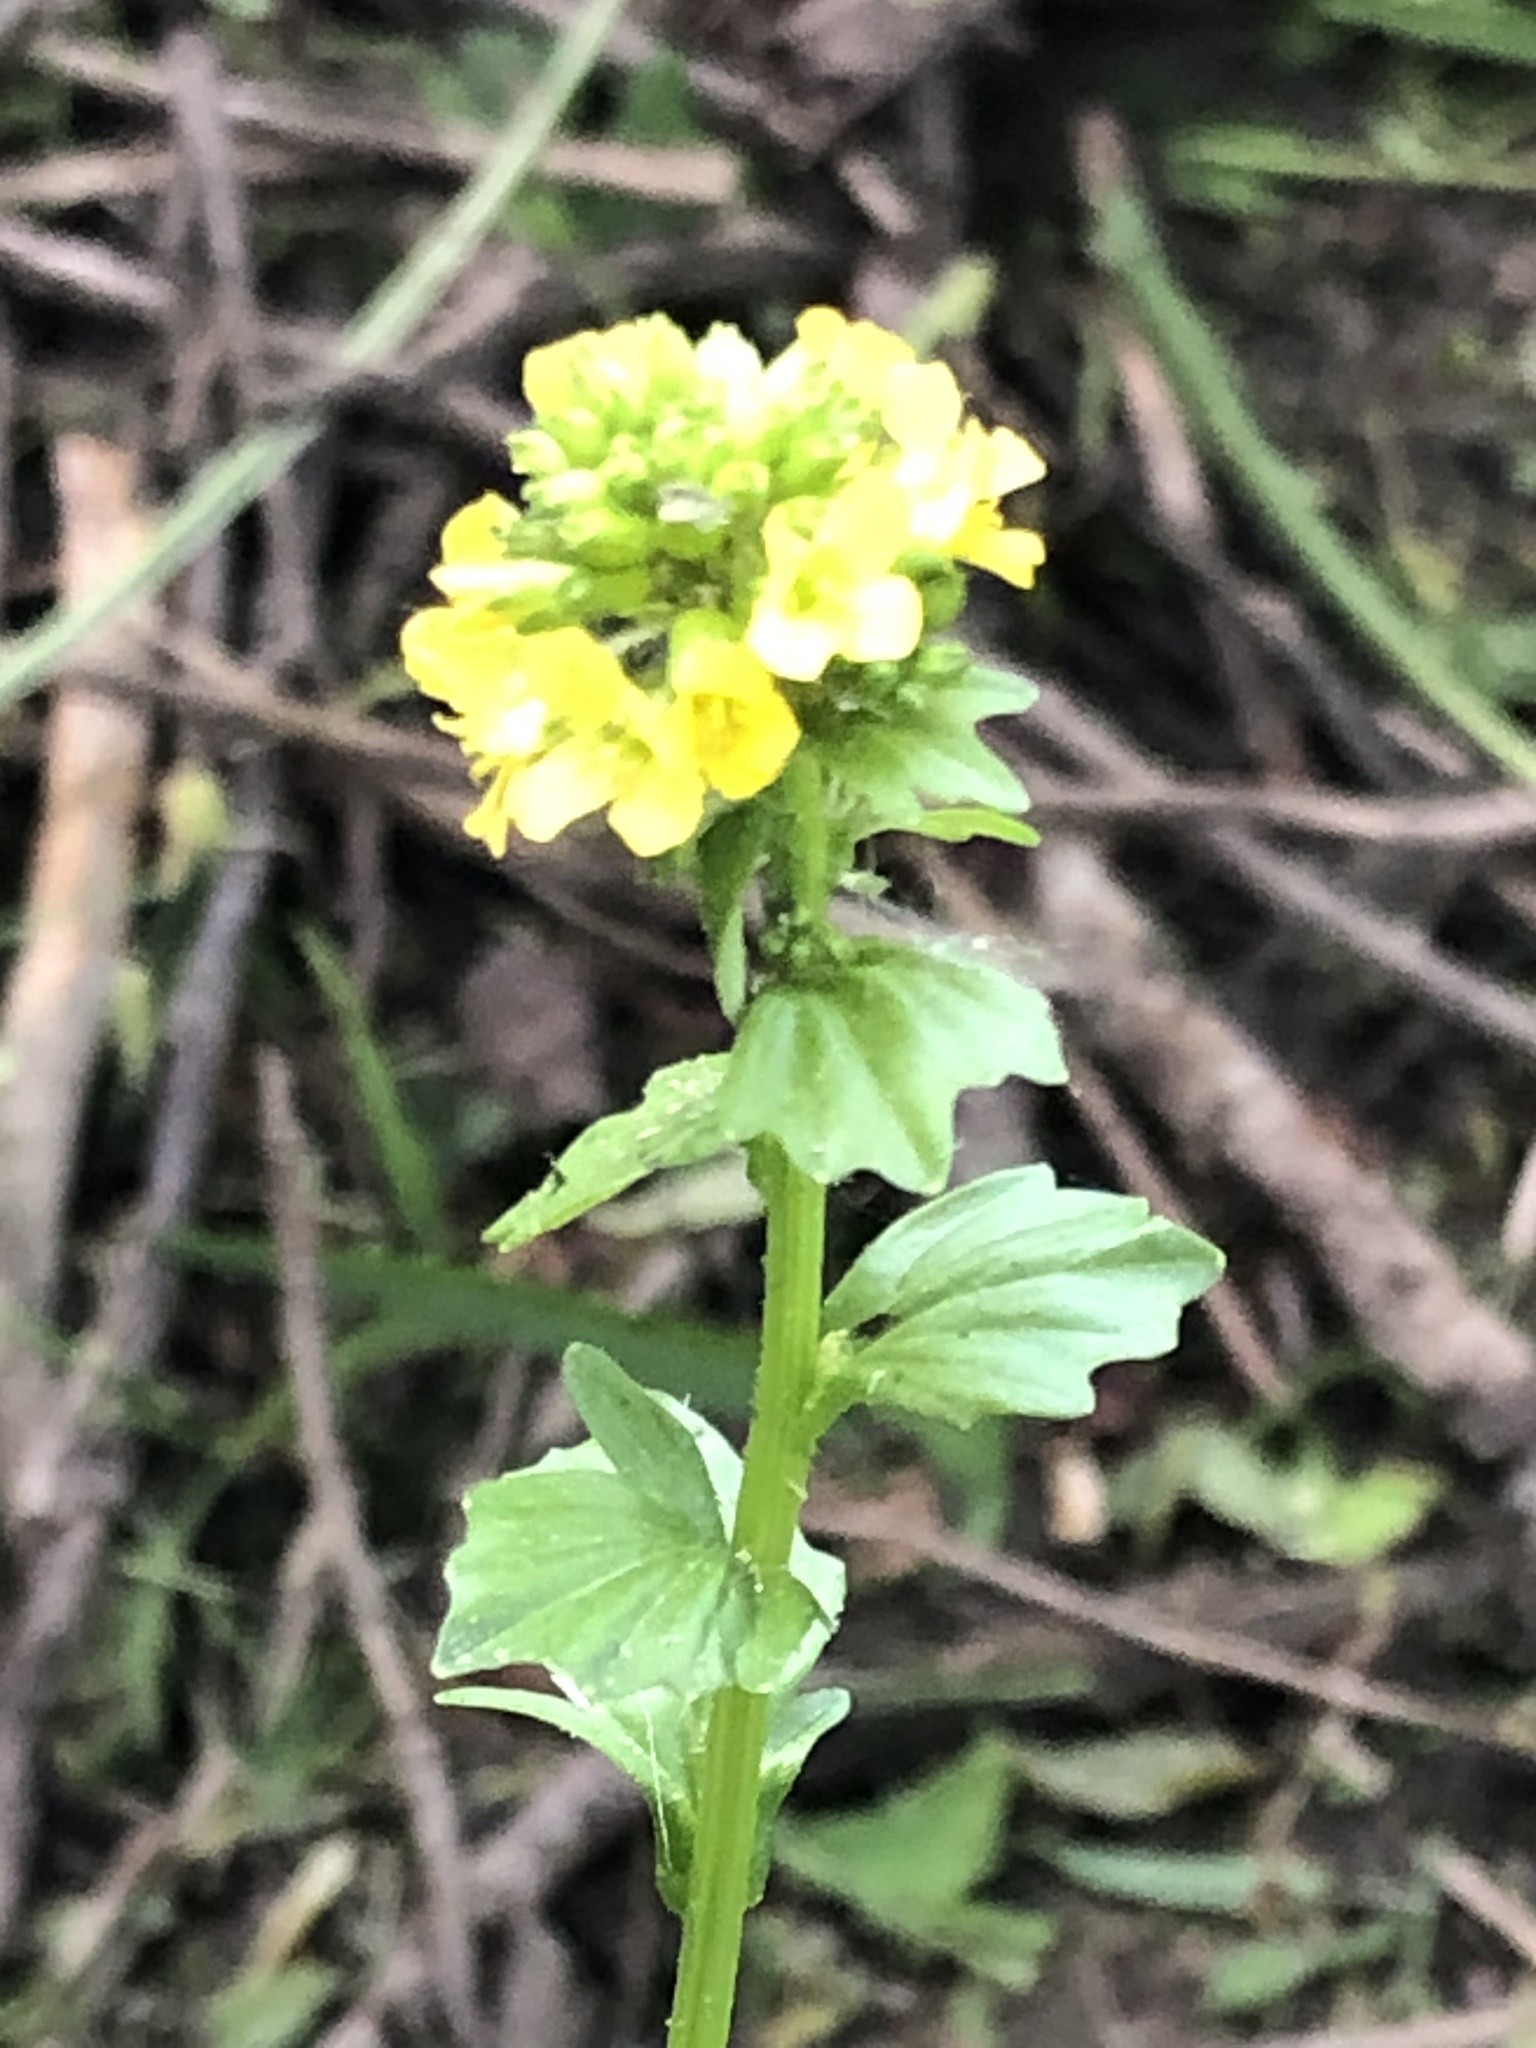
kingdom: Plantae
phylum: Tracheophyta
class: Magnoliopsida
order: Brassicales
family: Brassicaceae
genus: Barbarea
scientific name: Barbarea vulgaris
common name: Cressy-greens
